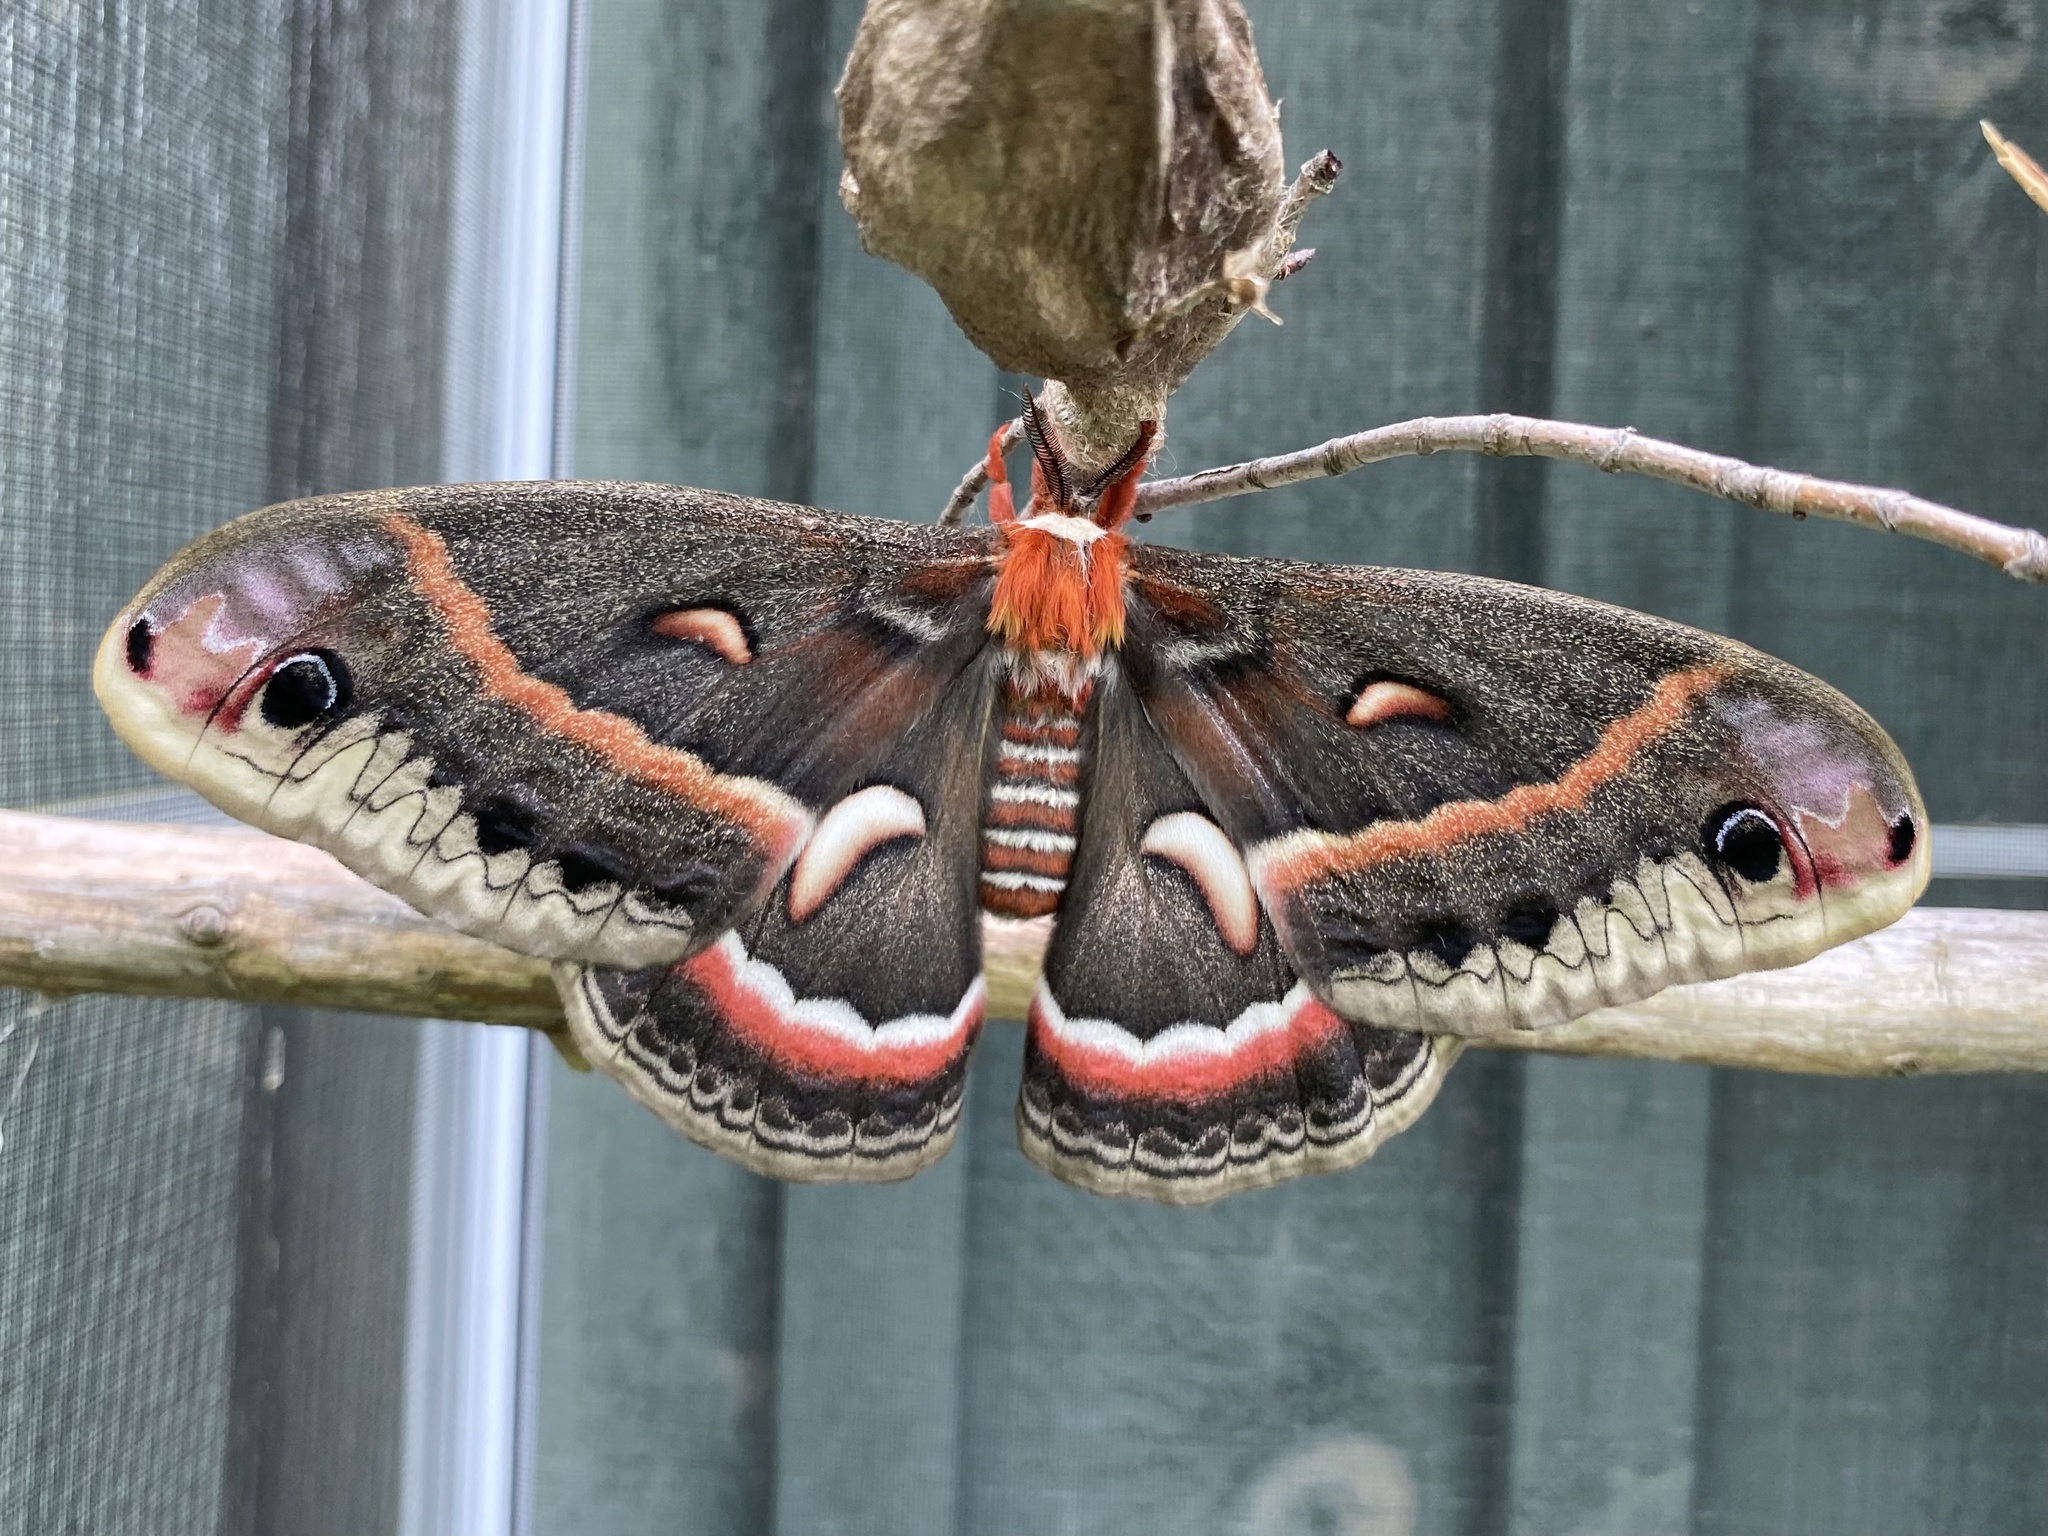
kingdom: Animalia
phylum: Arthropoda
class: Insecta
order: Lepidoptera
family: Saturniidae
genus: Hyalophora
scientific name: Hyalophora cecropia
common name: Cecropia silkmoth
